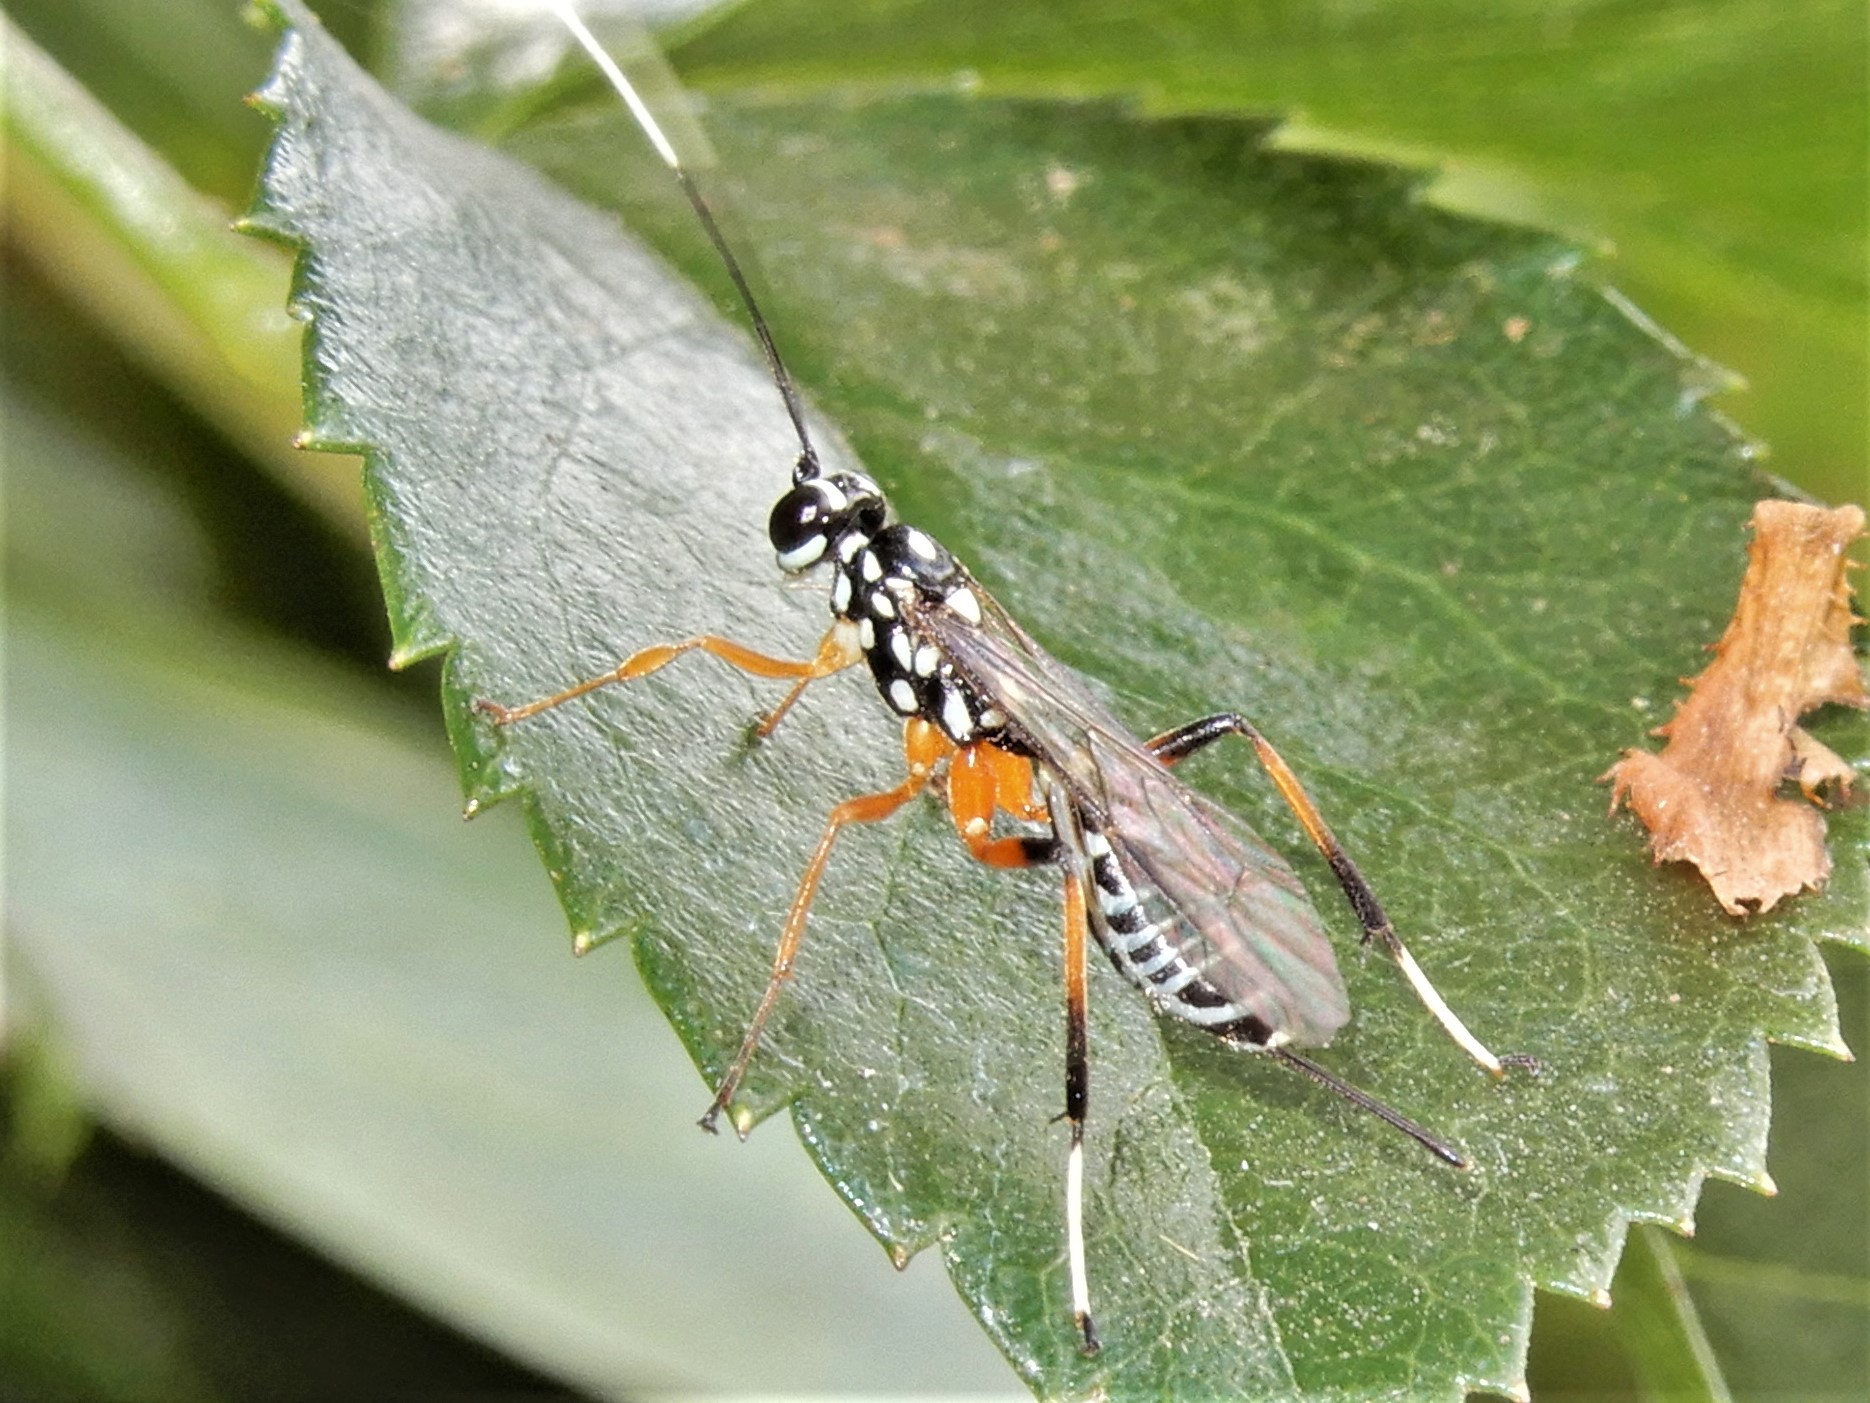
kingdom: Animalia
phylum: Arthropoda
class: Insecta
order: Hymenoptera
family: Ichneumonidae
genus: Xanthocryptus
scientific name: Xanthocryptus novozealandicus
